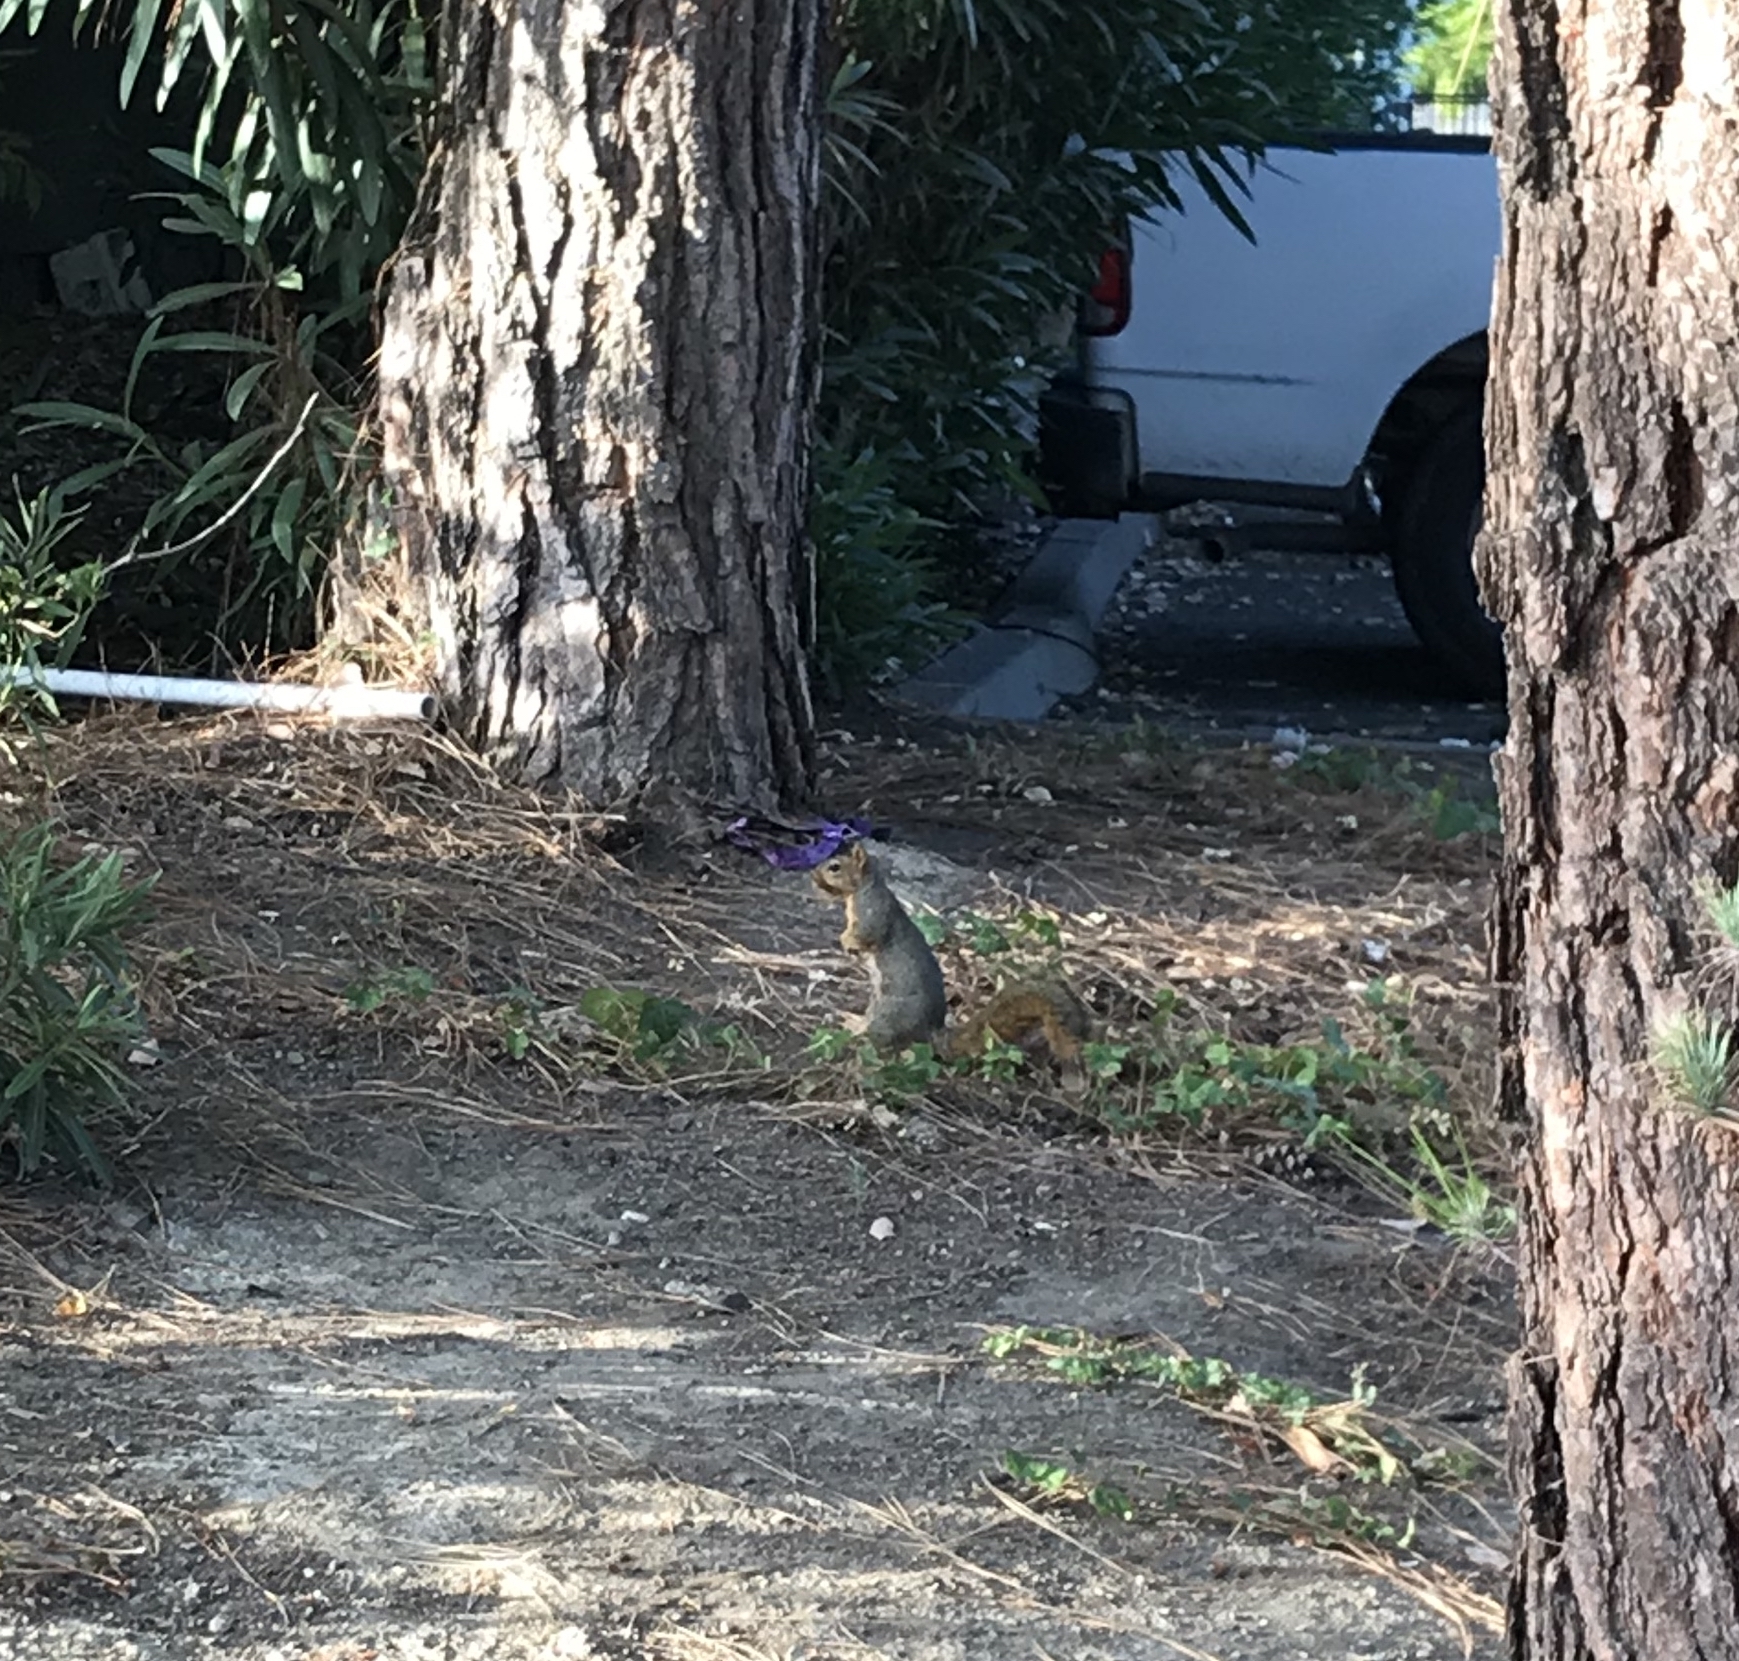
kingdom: Animalia
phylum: Chordata
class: Mammalia
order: Rodentia
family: Sciuridae
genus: Sciurus
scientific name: Sciurus niger
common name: Fox squirrel
